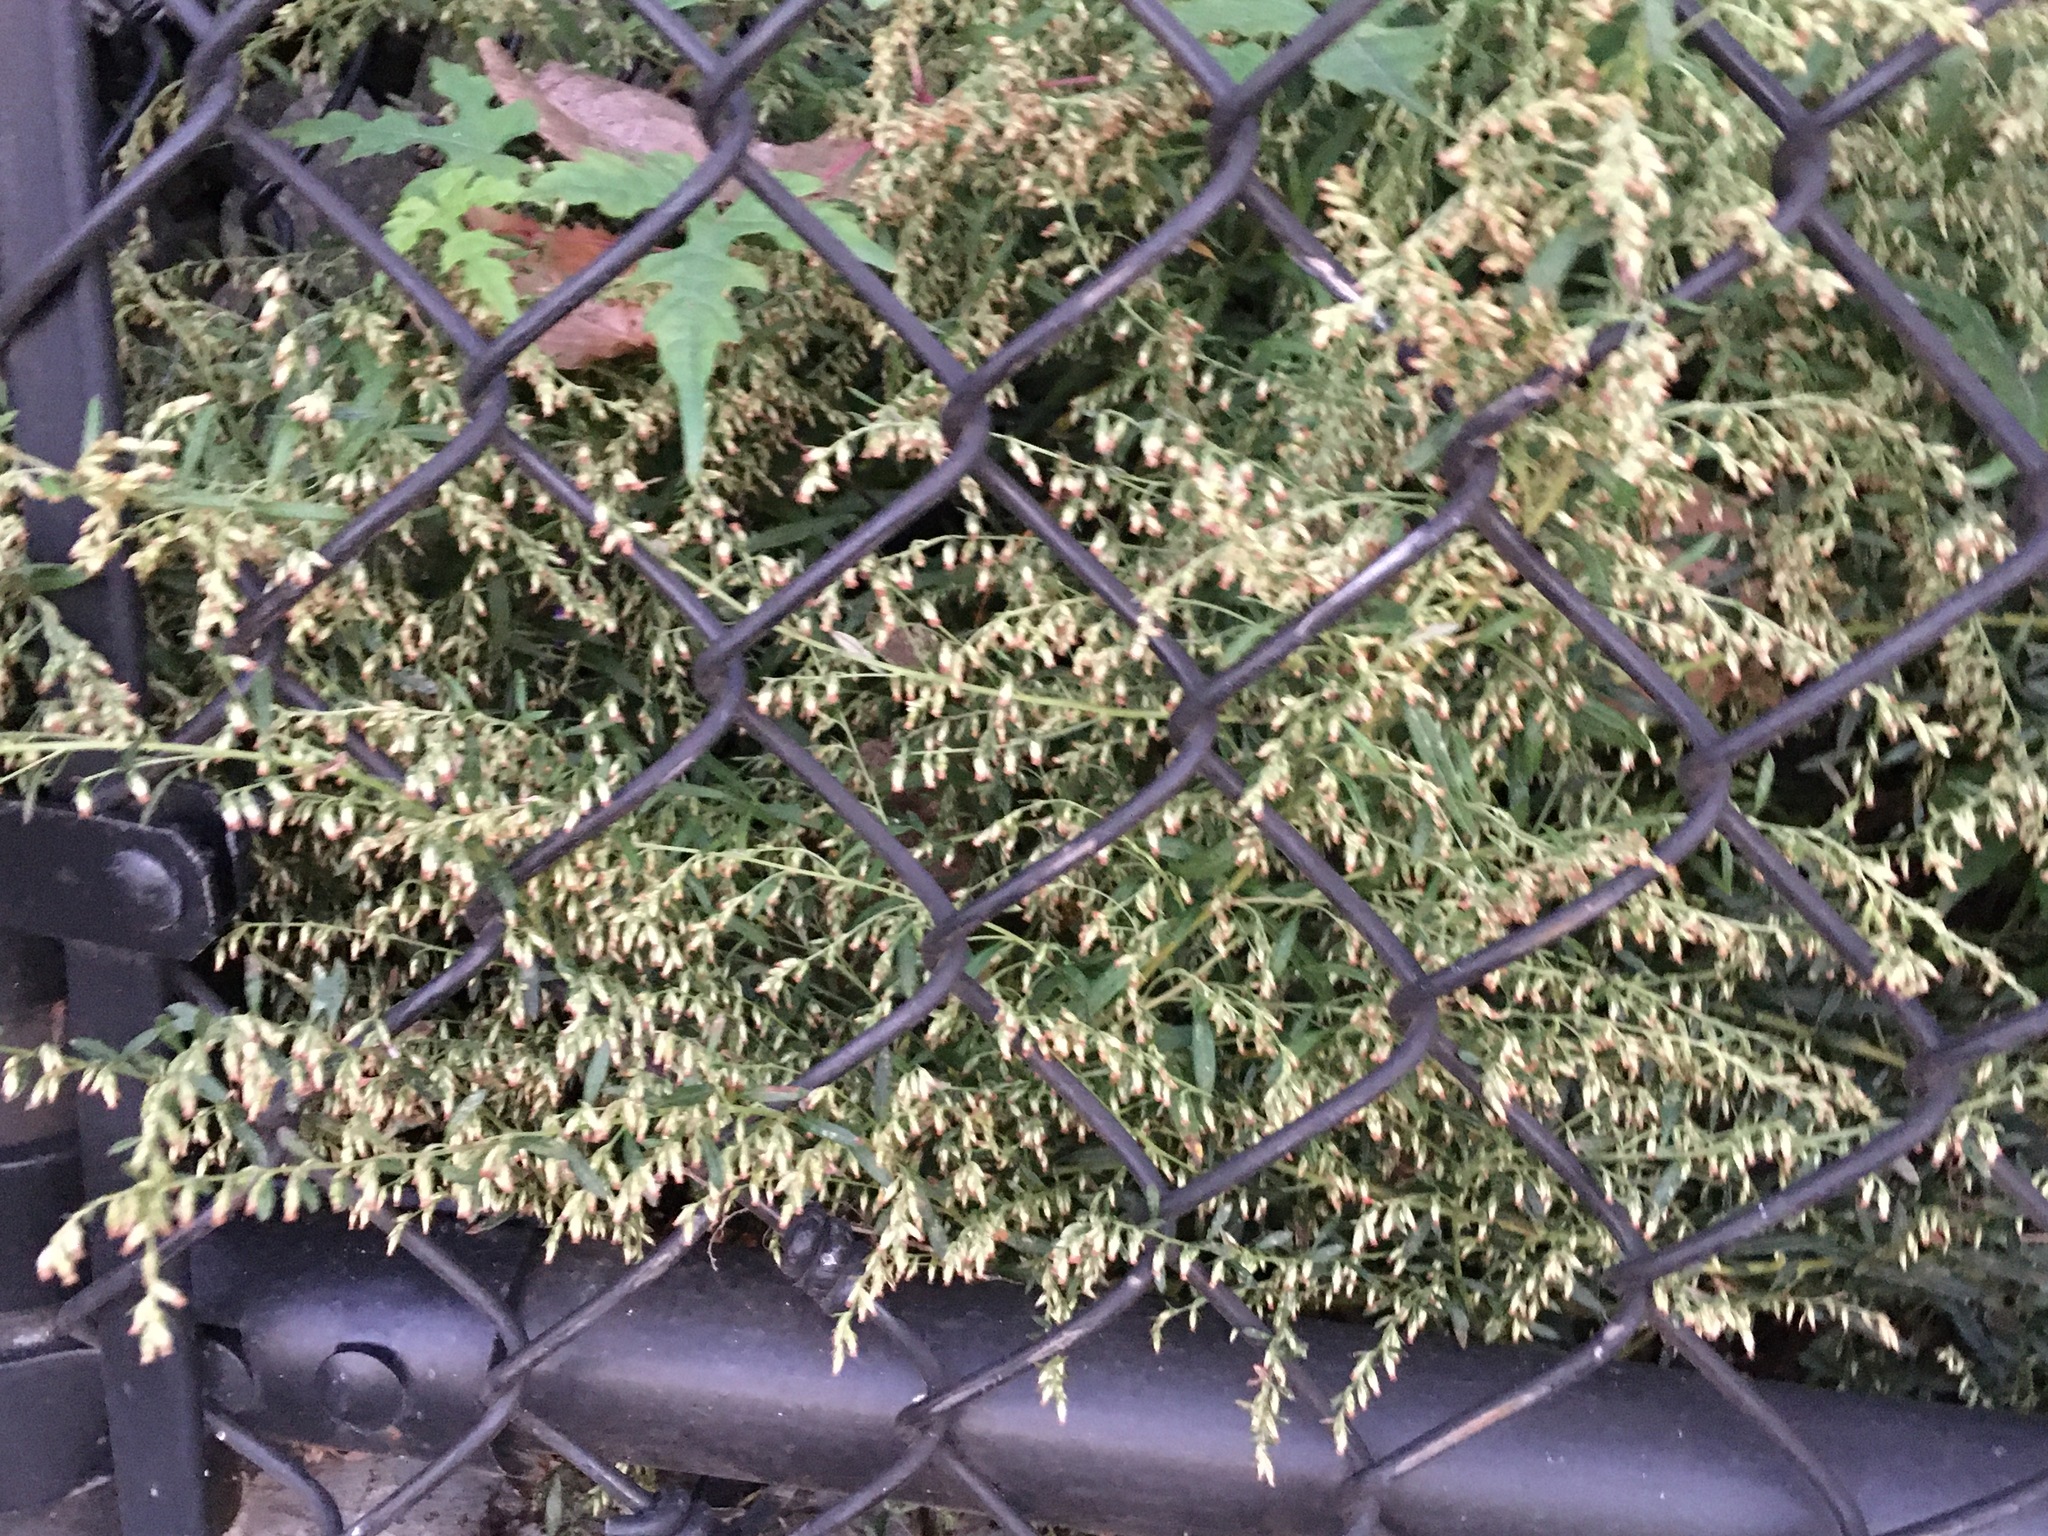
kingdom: Plantae
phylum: Tracheophyta
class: Magnoliopsida
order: Asterales
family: Asteraceae
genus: Artemisia
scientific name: Artemisia vulgaris
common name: Mugwort
